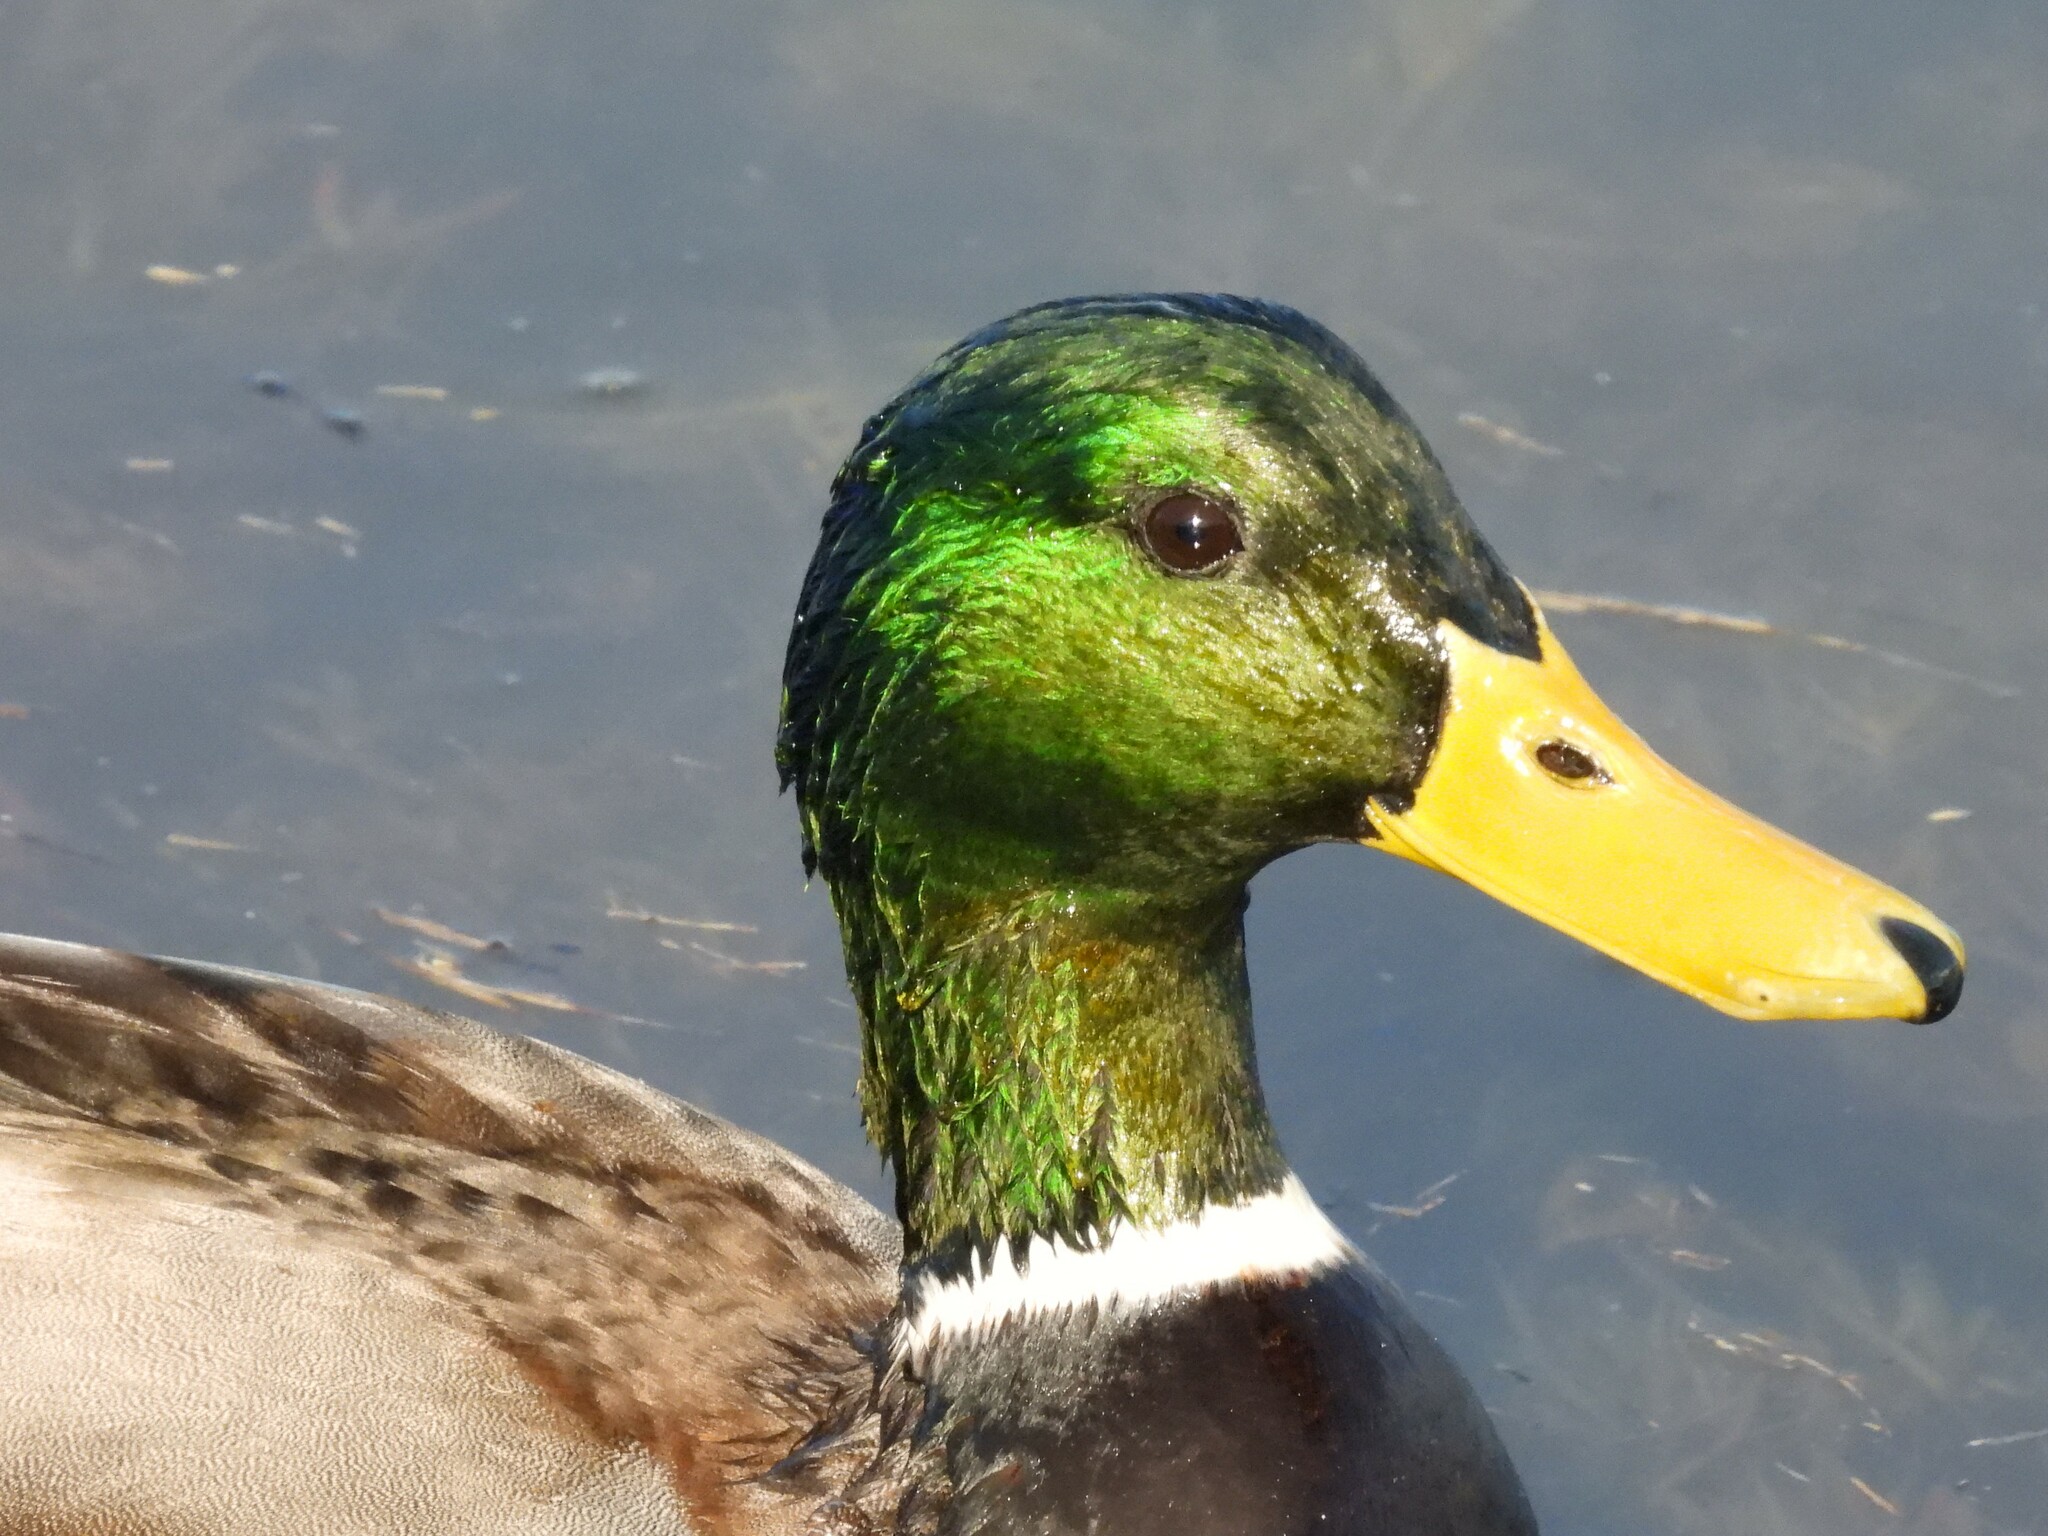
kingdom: Animalia
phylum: Chordata
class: Aves
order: Anseriformes
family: Anatidae
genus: Anas
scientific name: Anas platyrhynchos
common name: Mallard
